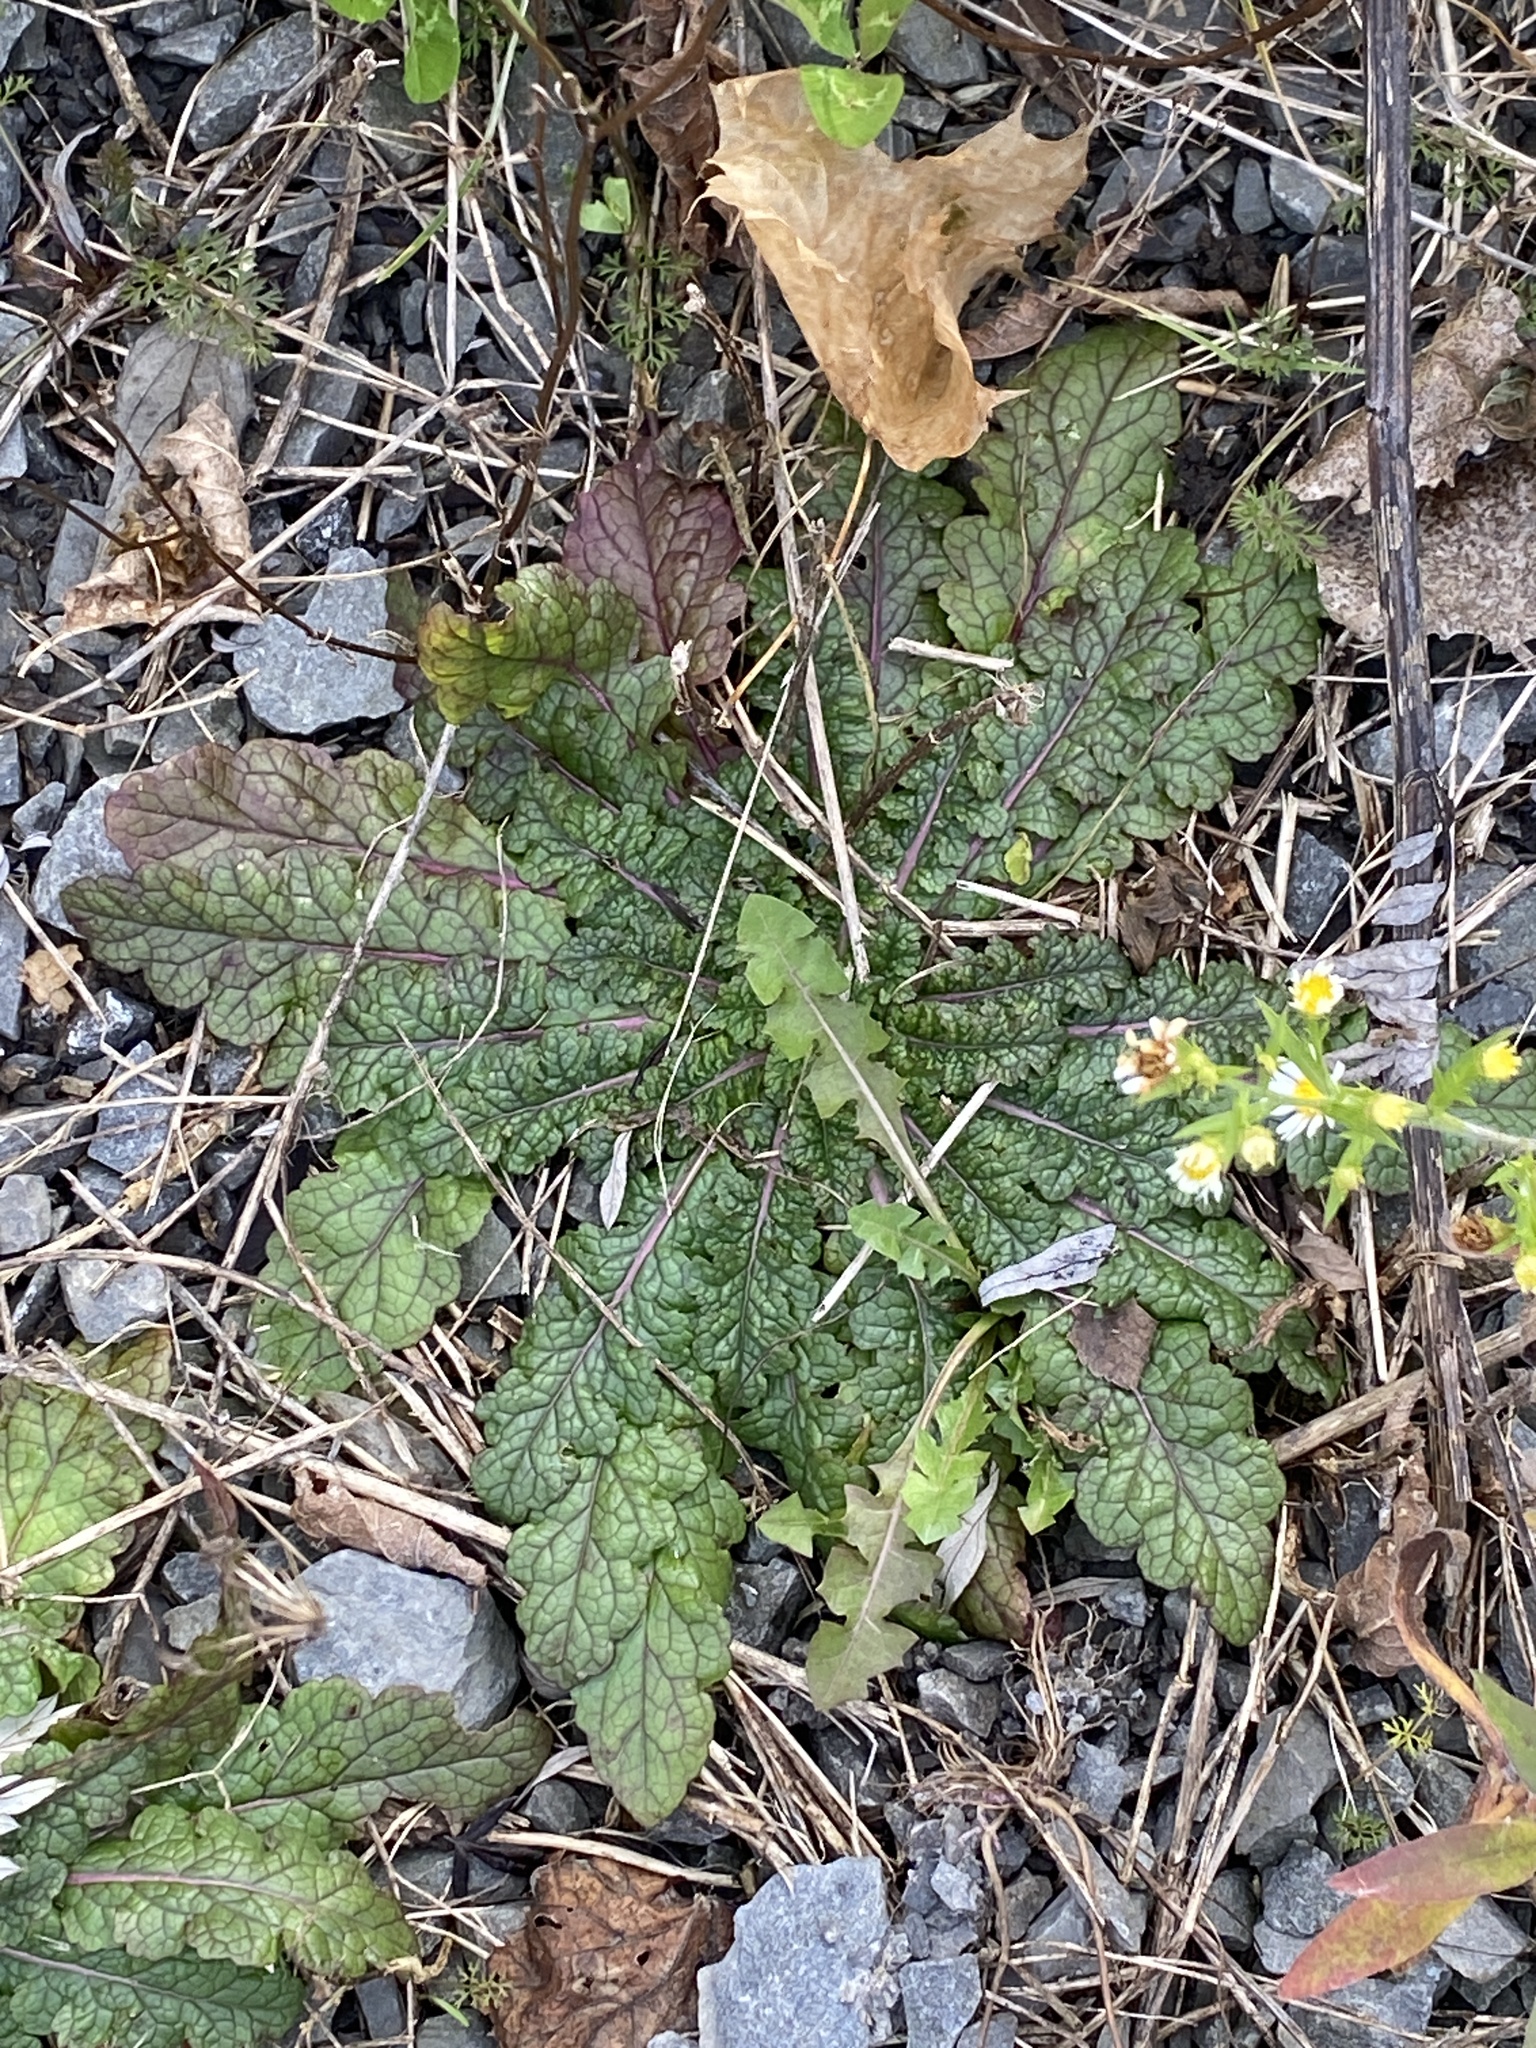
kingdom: Plantae
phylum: Tracheophyta
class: Magnoliopsida
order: Lamiales
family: Scrophulariaceae
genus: Verbascum
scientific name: Verbascum blattaria
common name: Moth mullein
